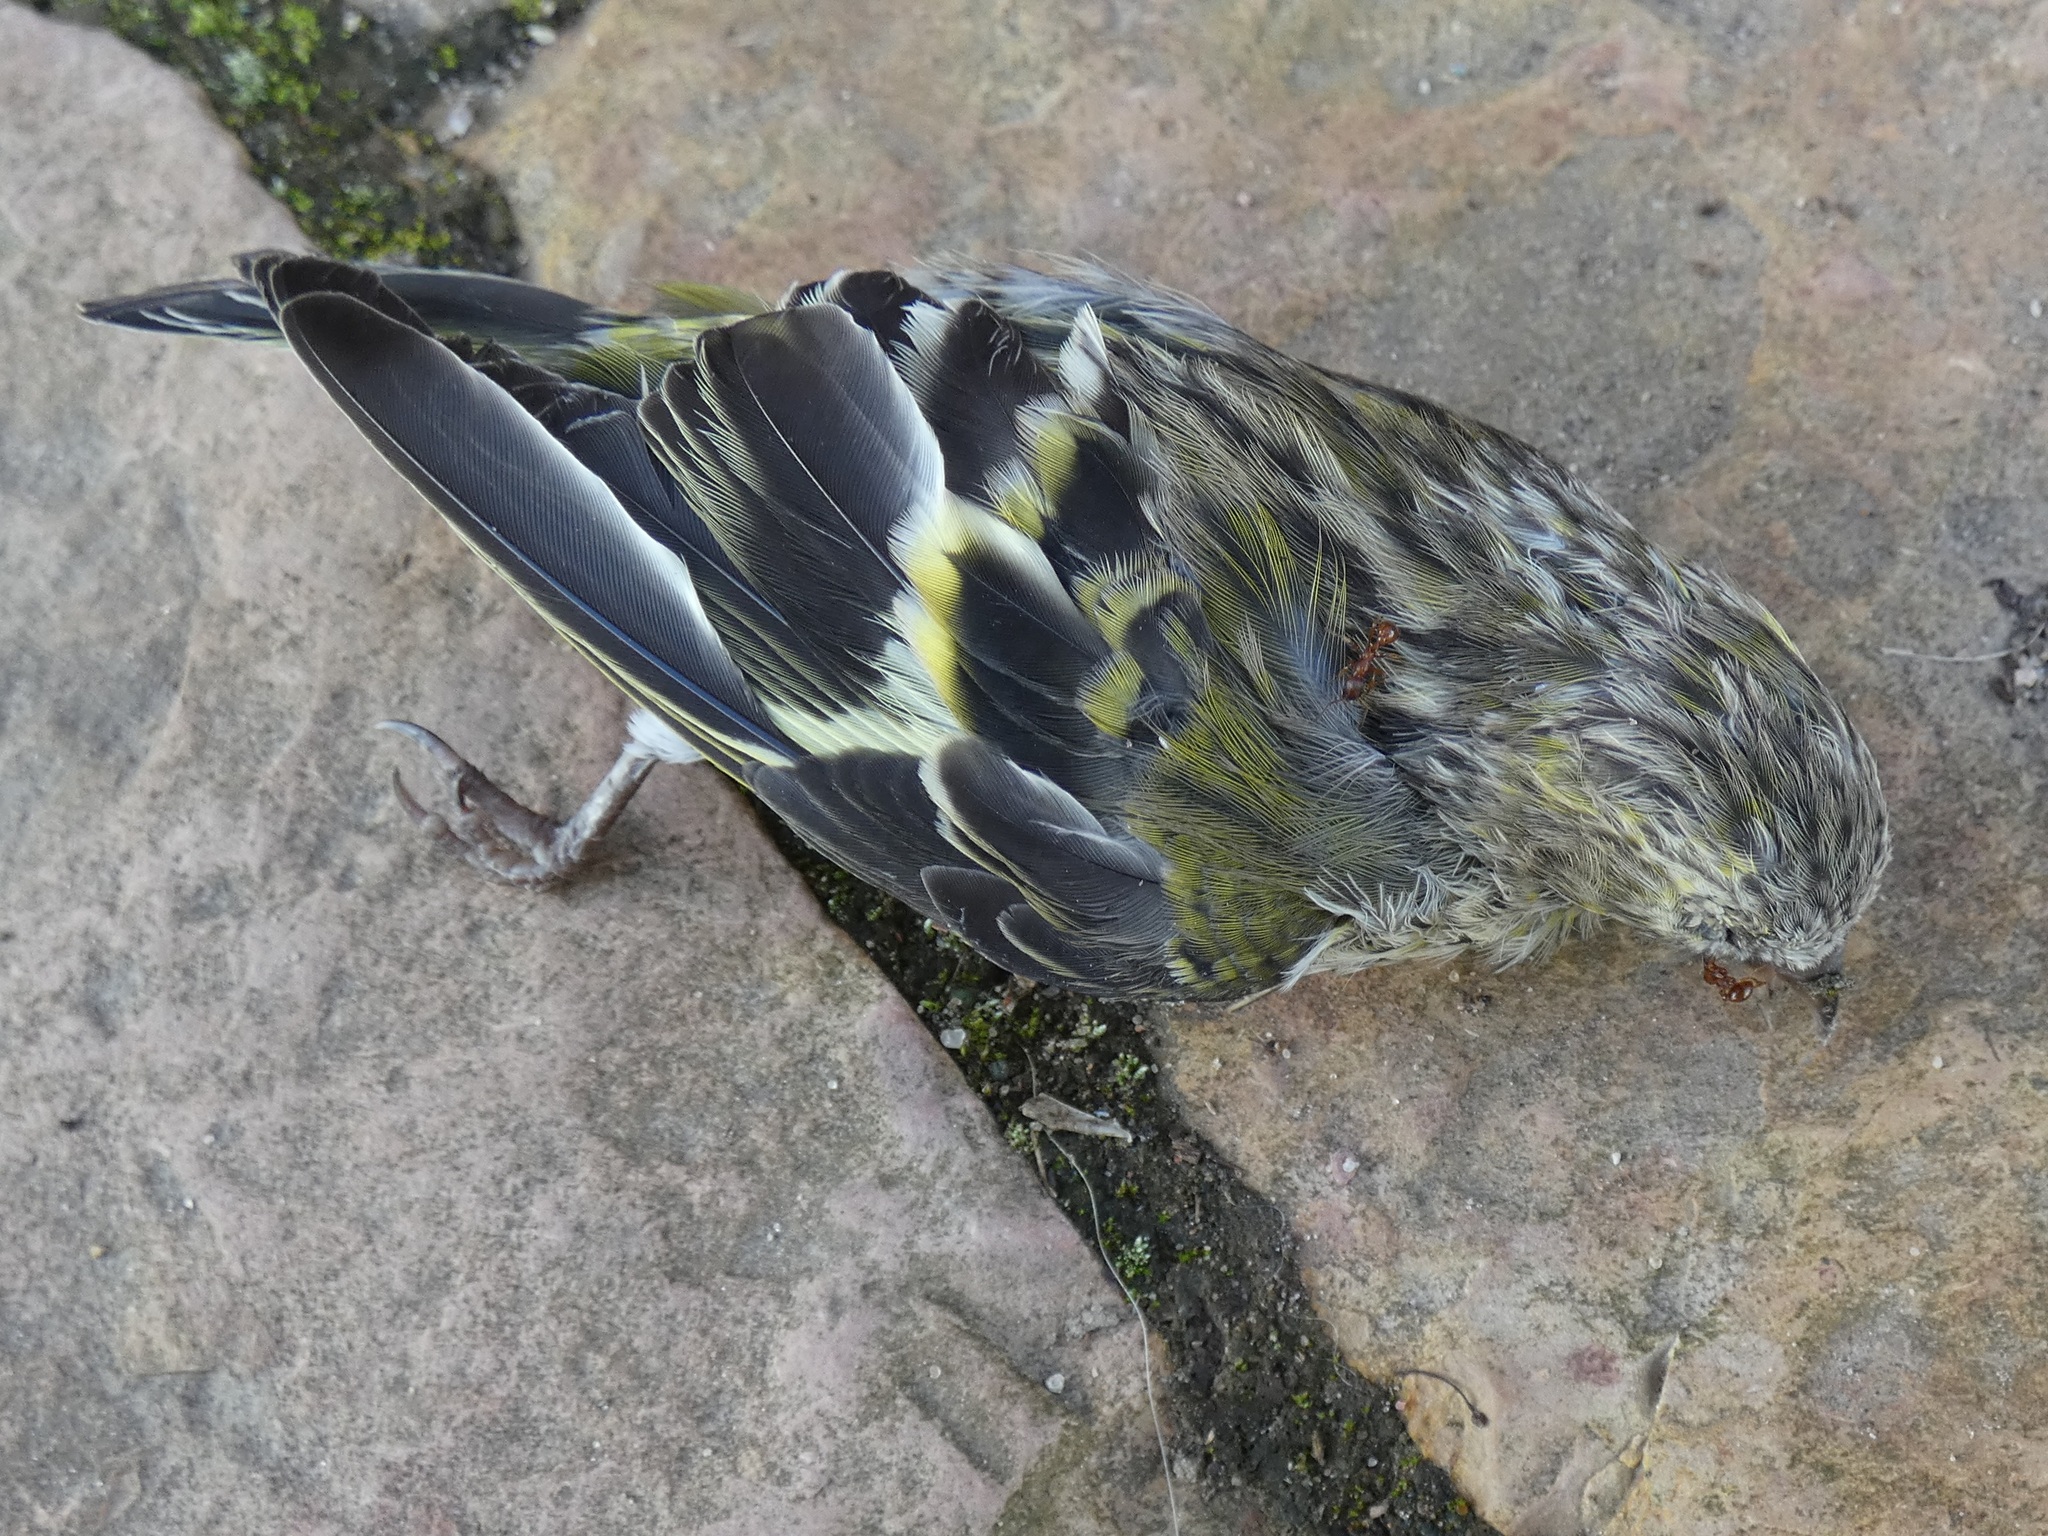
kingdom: Animalia
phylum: Chordata
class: Aves
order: Passeriformes
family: Fringillidae
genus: Spinus
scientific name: Spinus spinus
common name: Eurasian siskin
